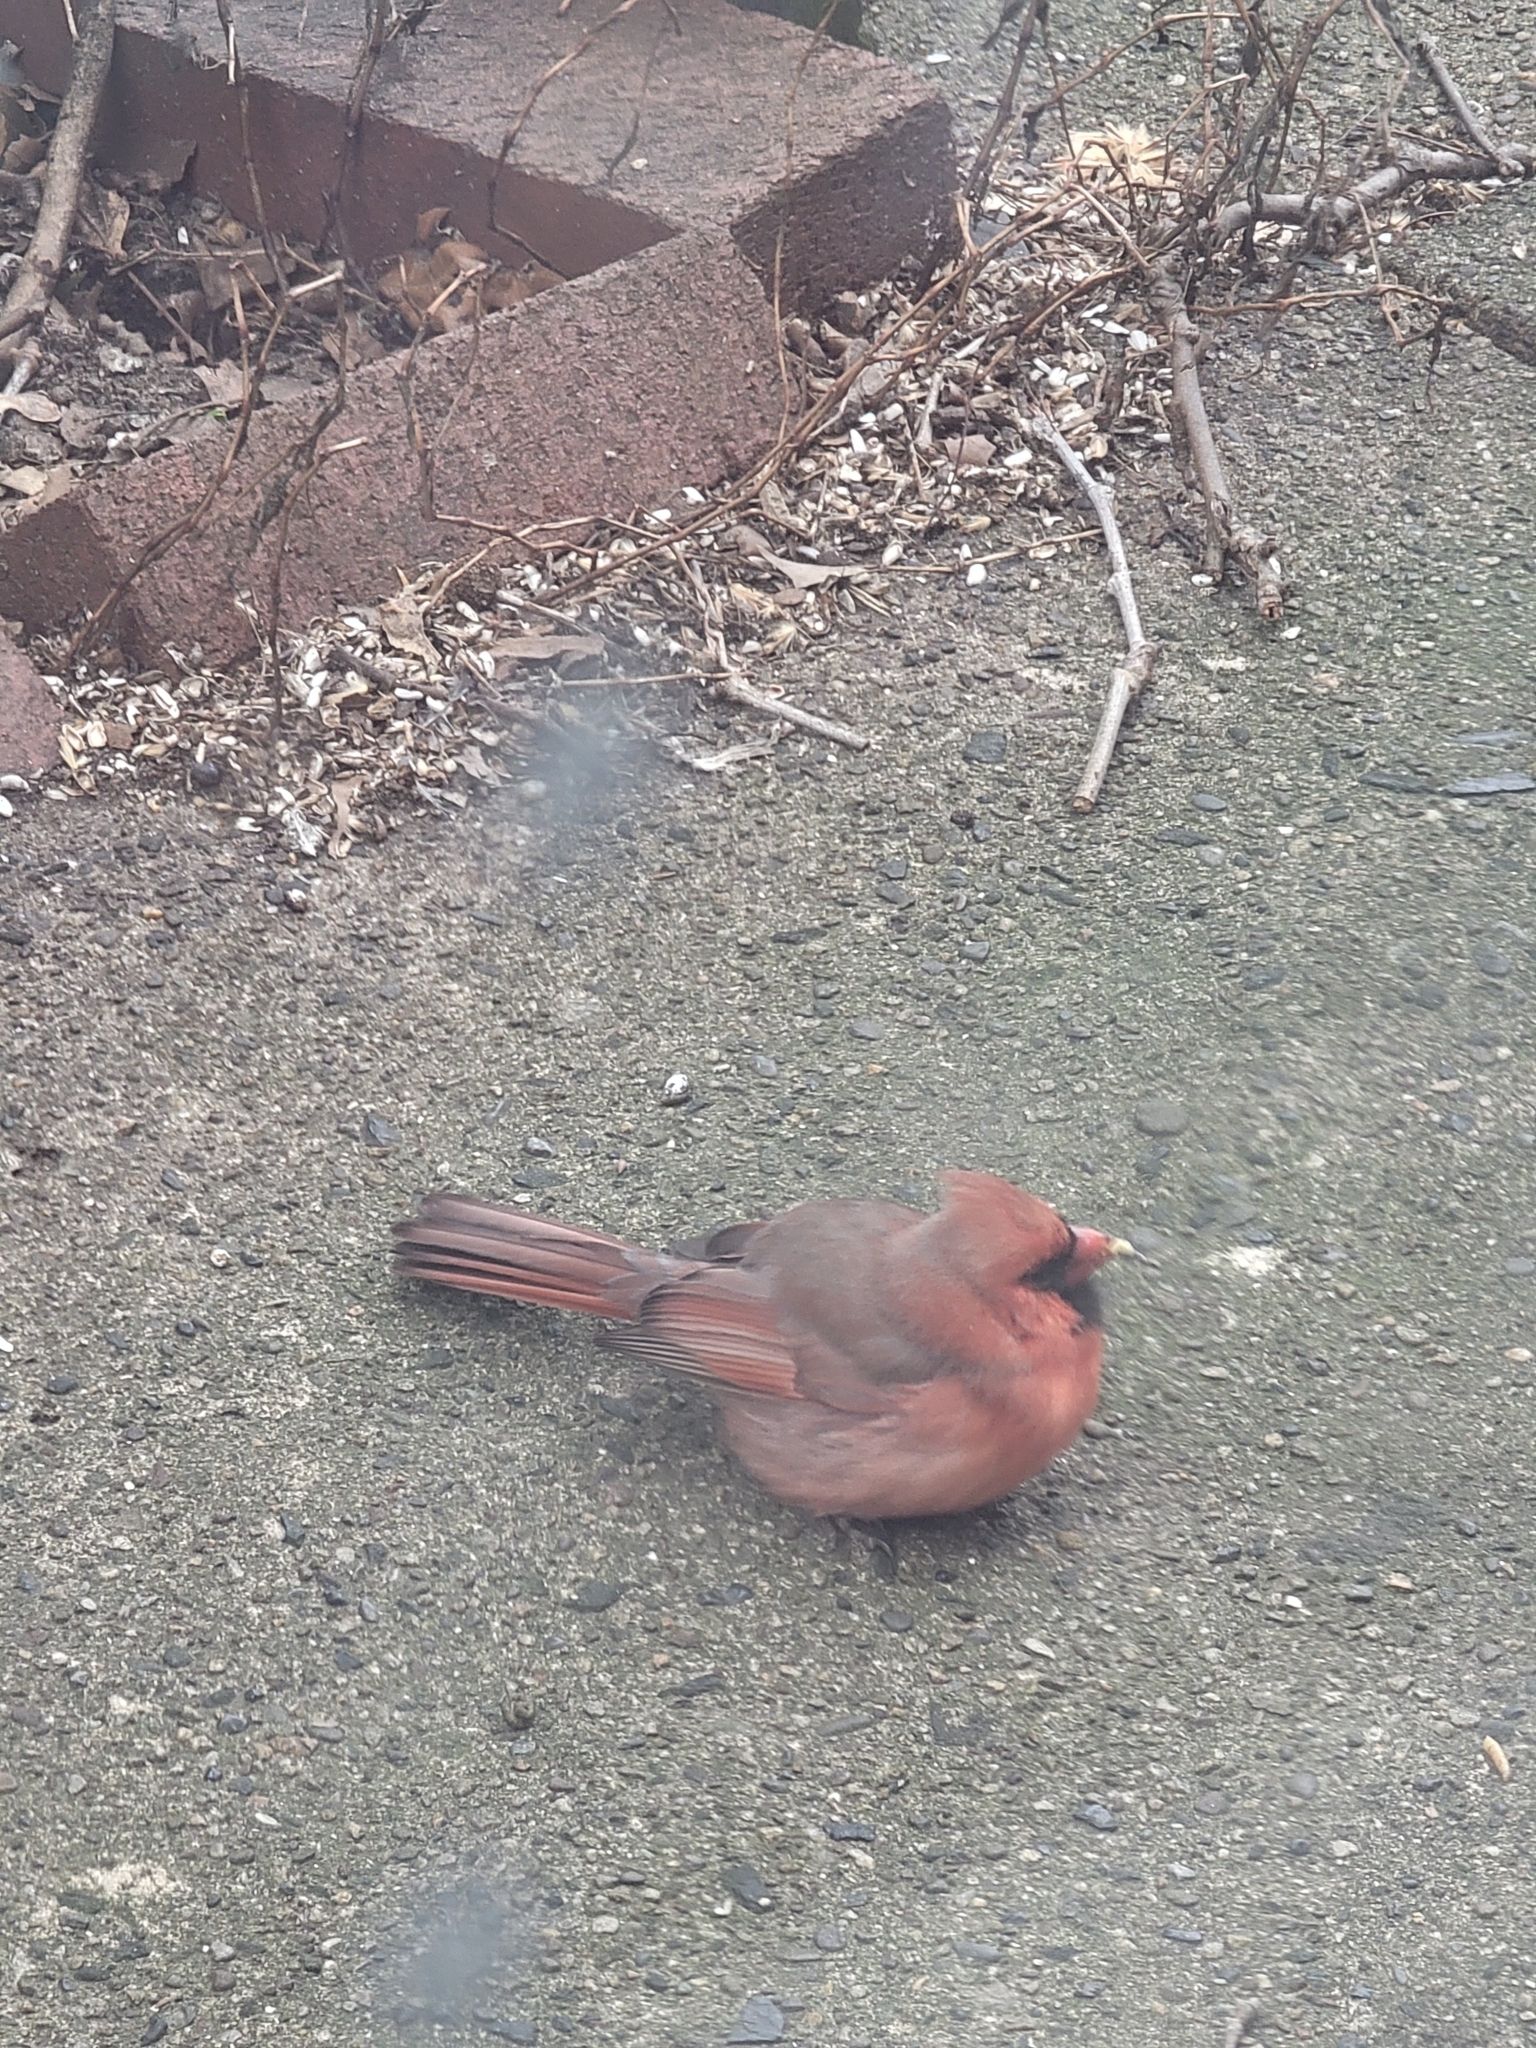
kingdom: Animalia
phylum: Chordata
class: Aves
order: Passeriformes
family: Cardinalidae
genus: Cardinalis
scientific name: Cardinalis cardinalis
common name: Northern cardinal
